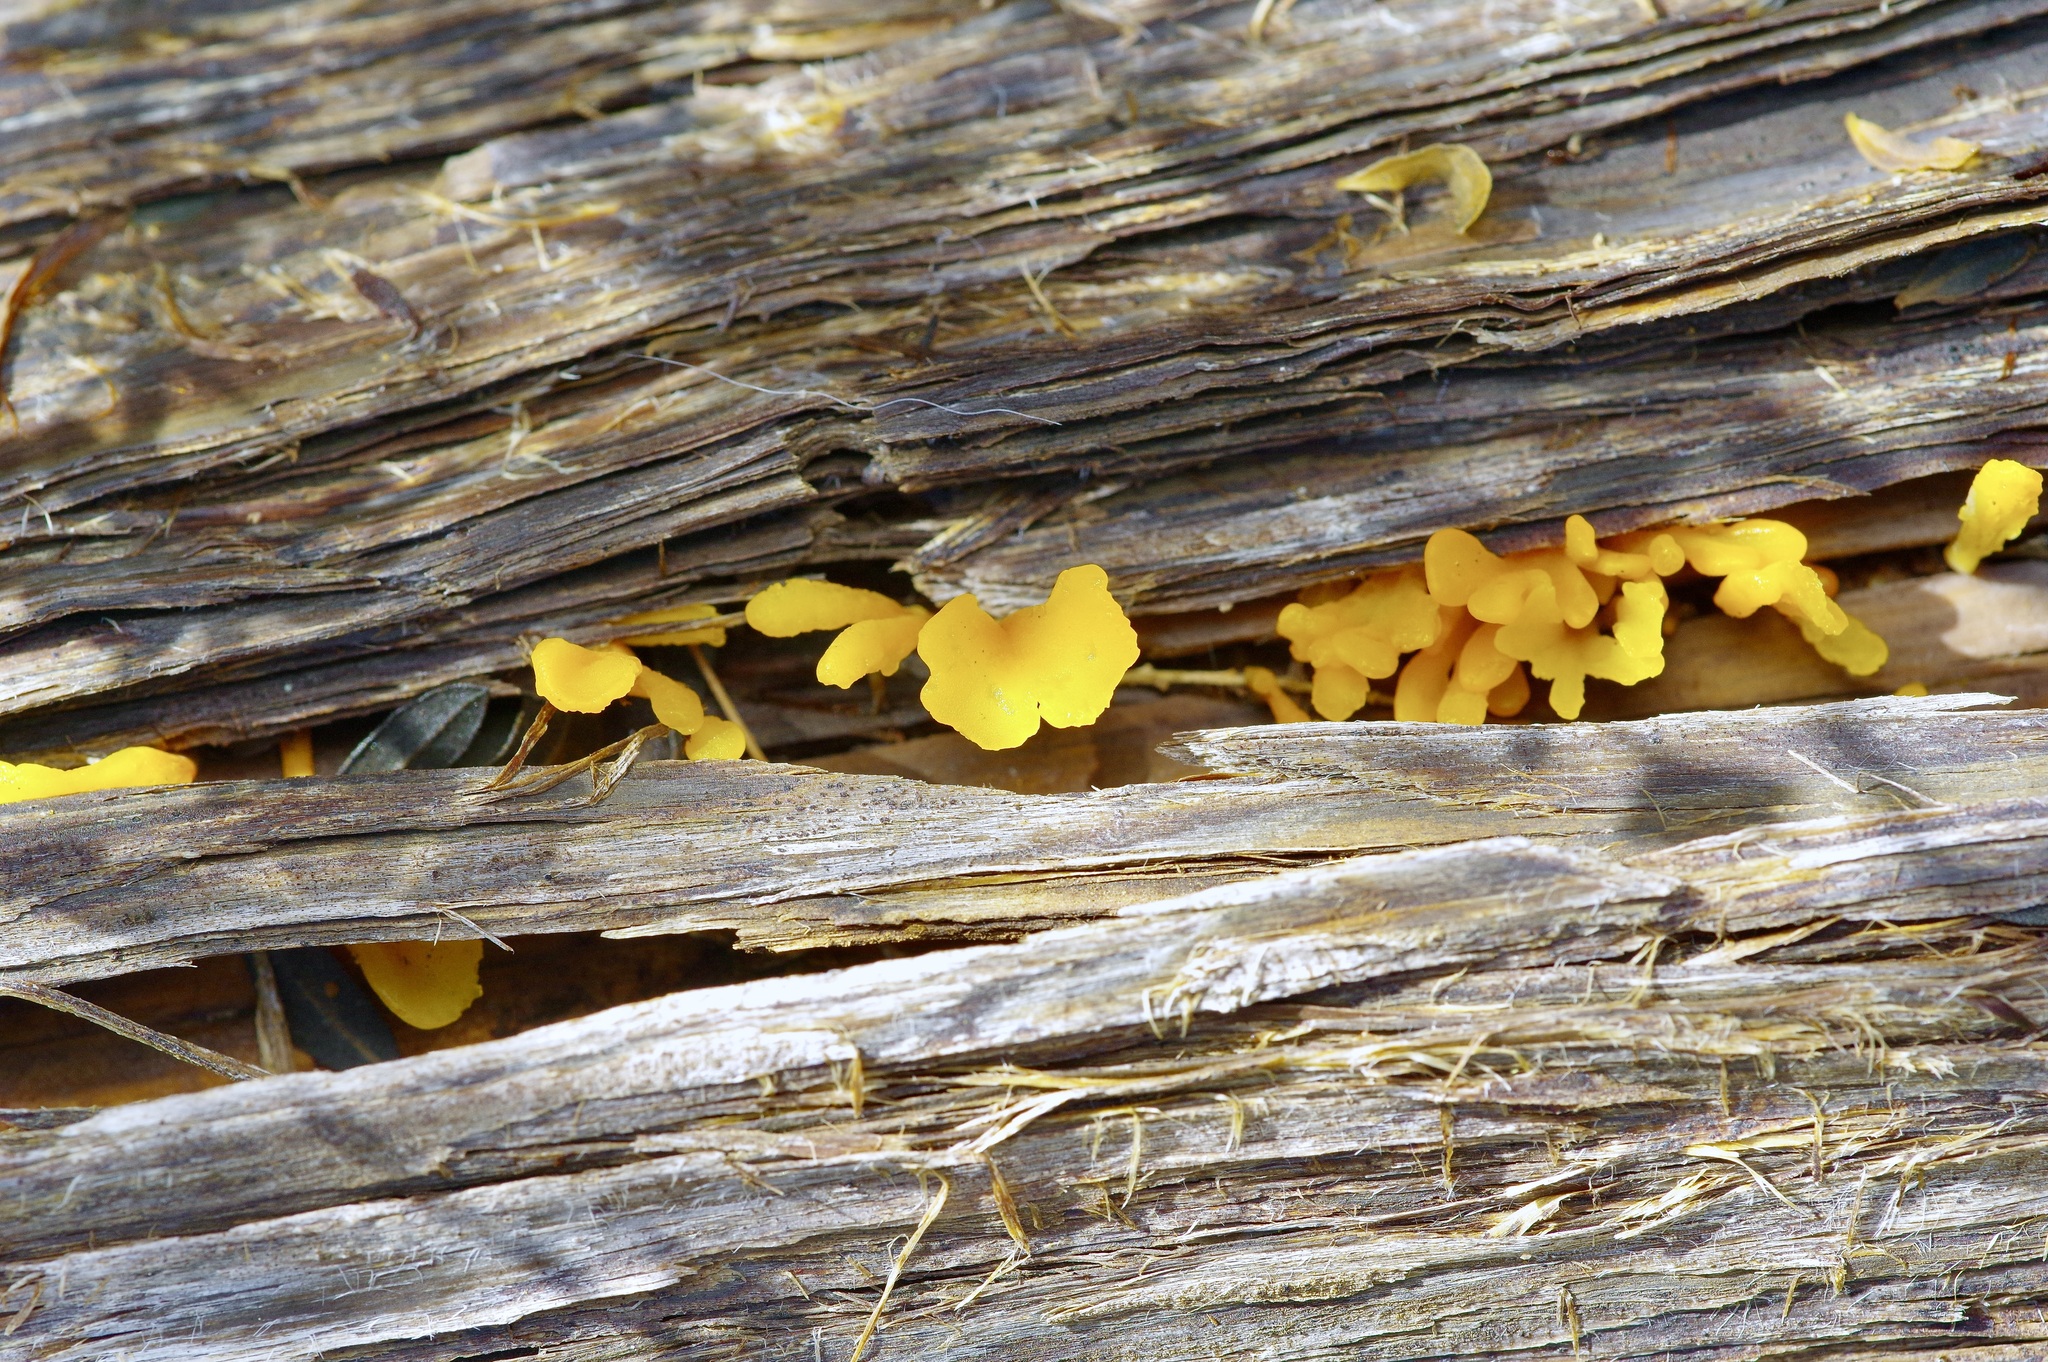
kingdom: Fungi
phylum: Basidiomycota
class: Dacrymycetes
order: Dacrymycetales
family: Dacrymycetaceae
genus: Dacrymyces
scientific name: Dacrymyces spathularius
